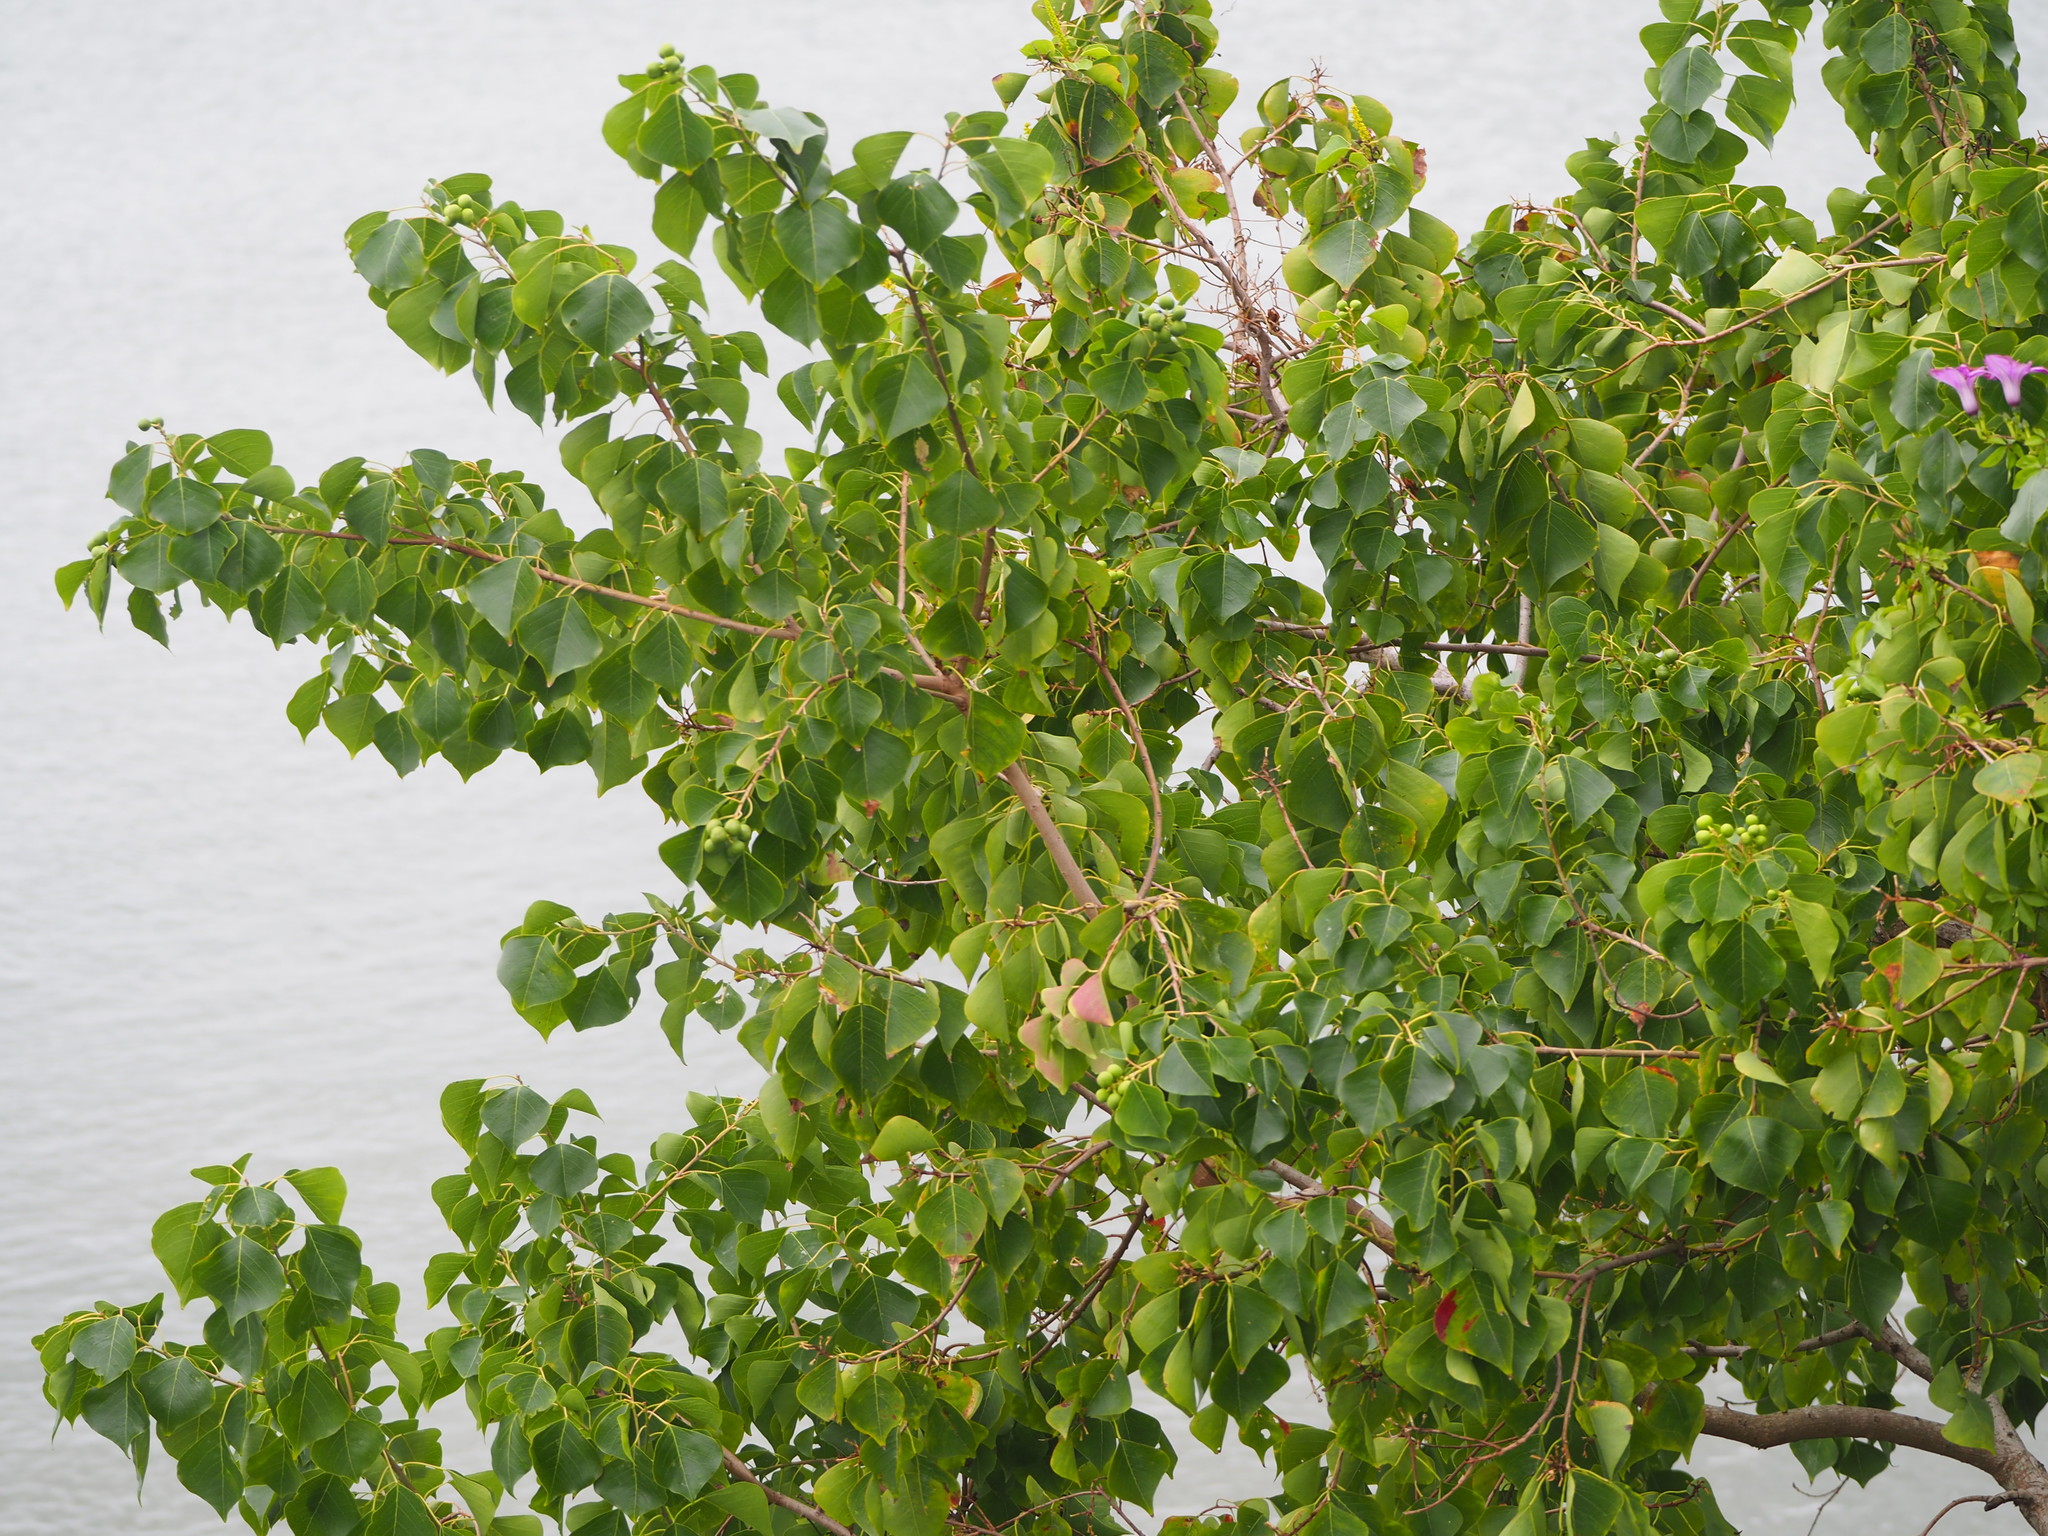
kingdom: Plantae
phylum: Tracheophyta
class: Magnoliopsida
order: Malpighiales
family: Euphorbiaceae
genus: Triadica
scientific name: Triadica sebifera
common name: Chinese tallow
